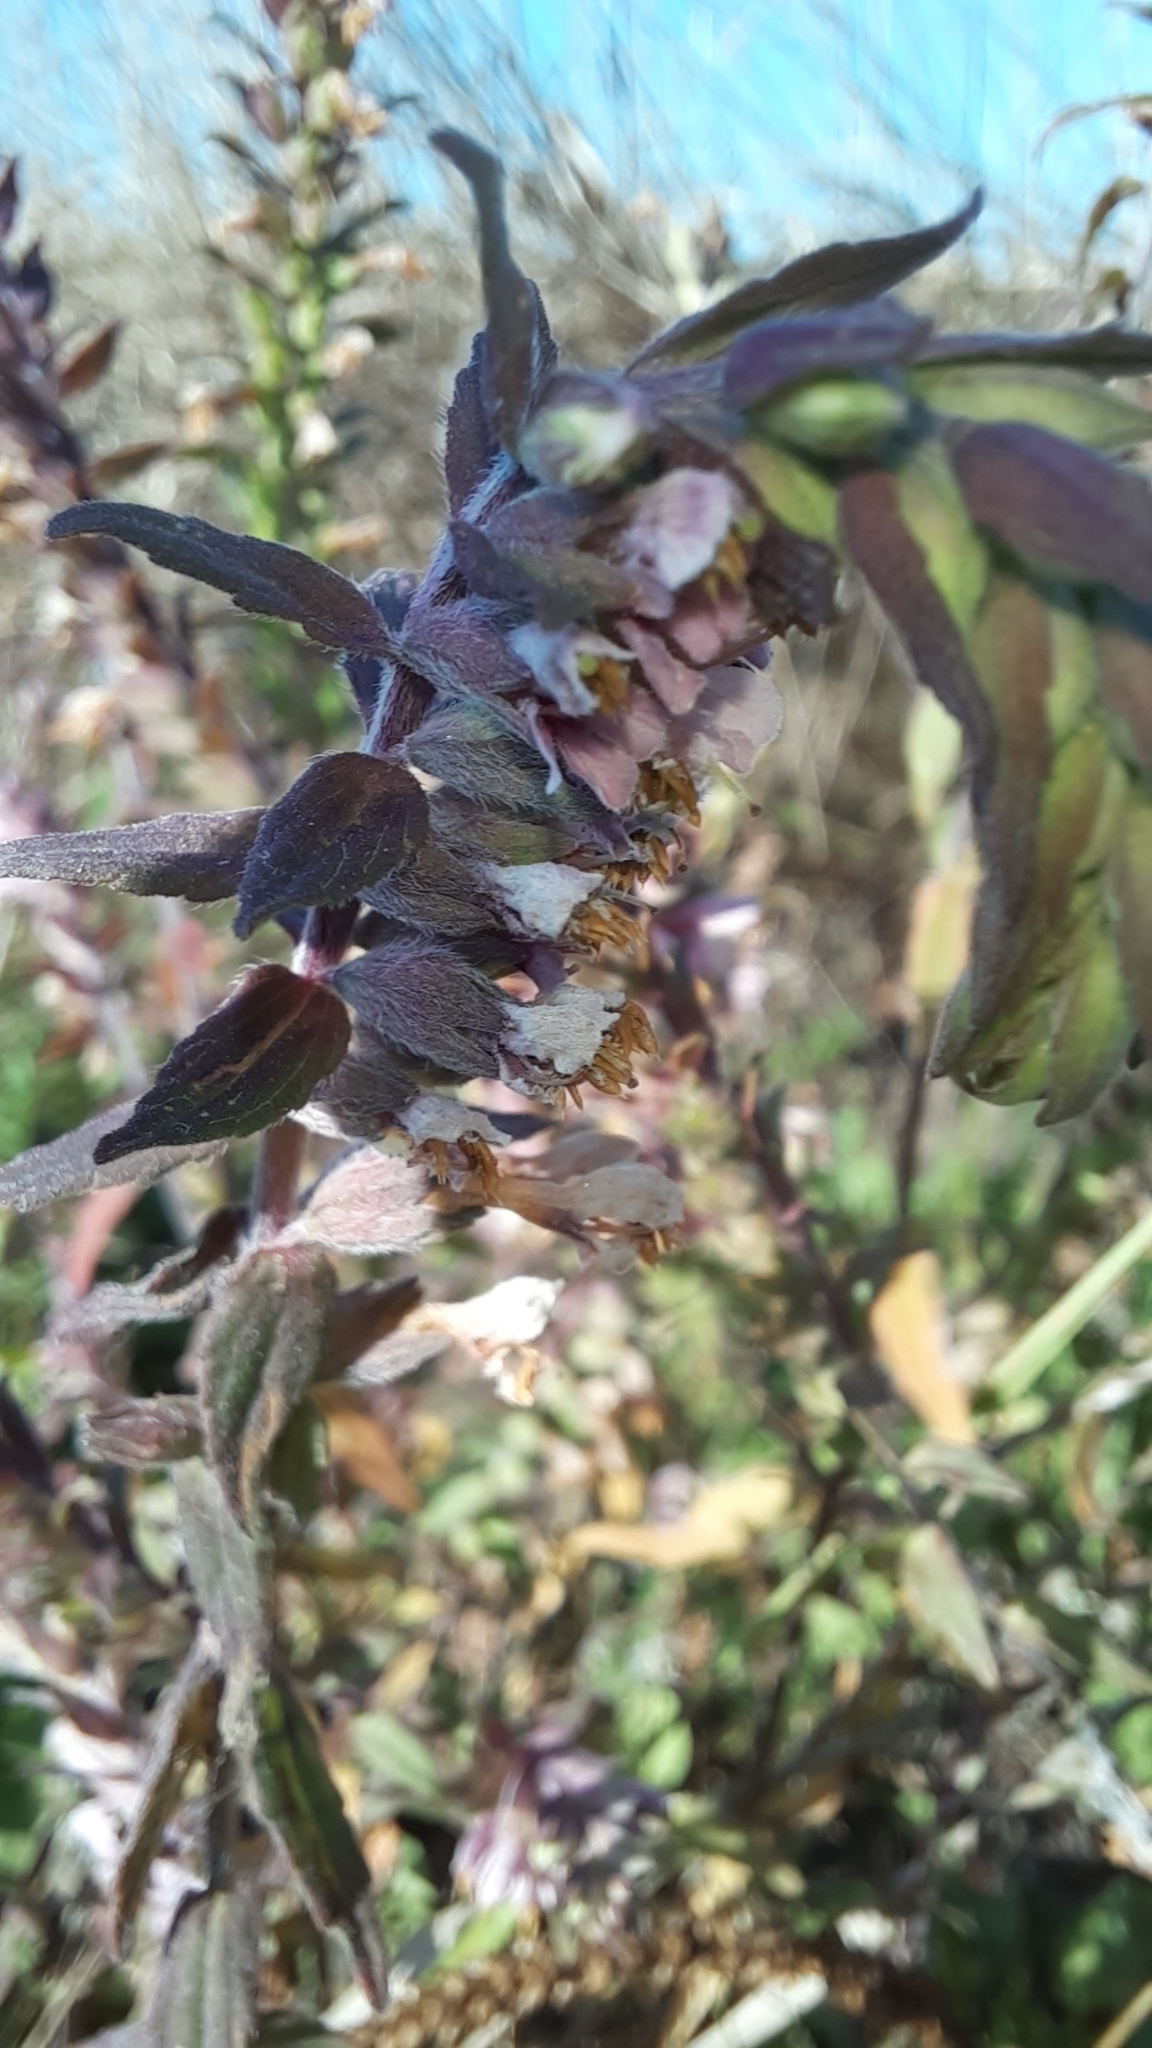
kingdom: Plantae
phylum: Tracheophyta
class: Magnoliopsida
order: Lamiales
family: Orobanchaceae
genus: Odontites
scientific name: Odontites vulgaris
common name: Broomrape
